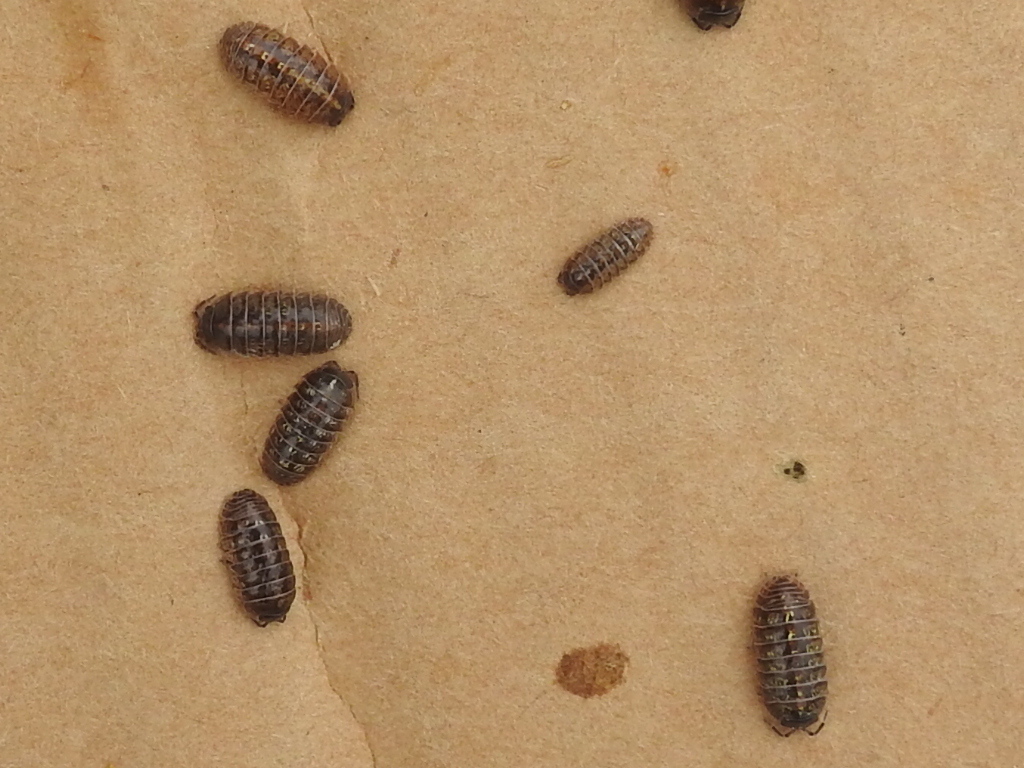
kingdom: Animalia
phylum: Arthropoda
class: Malacostraca
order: Isopoda
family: Armadillidiidae
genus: Armadillidium
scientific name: Armadillidium vulgare
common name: Common pill woodlouse
